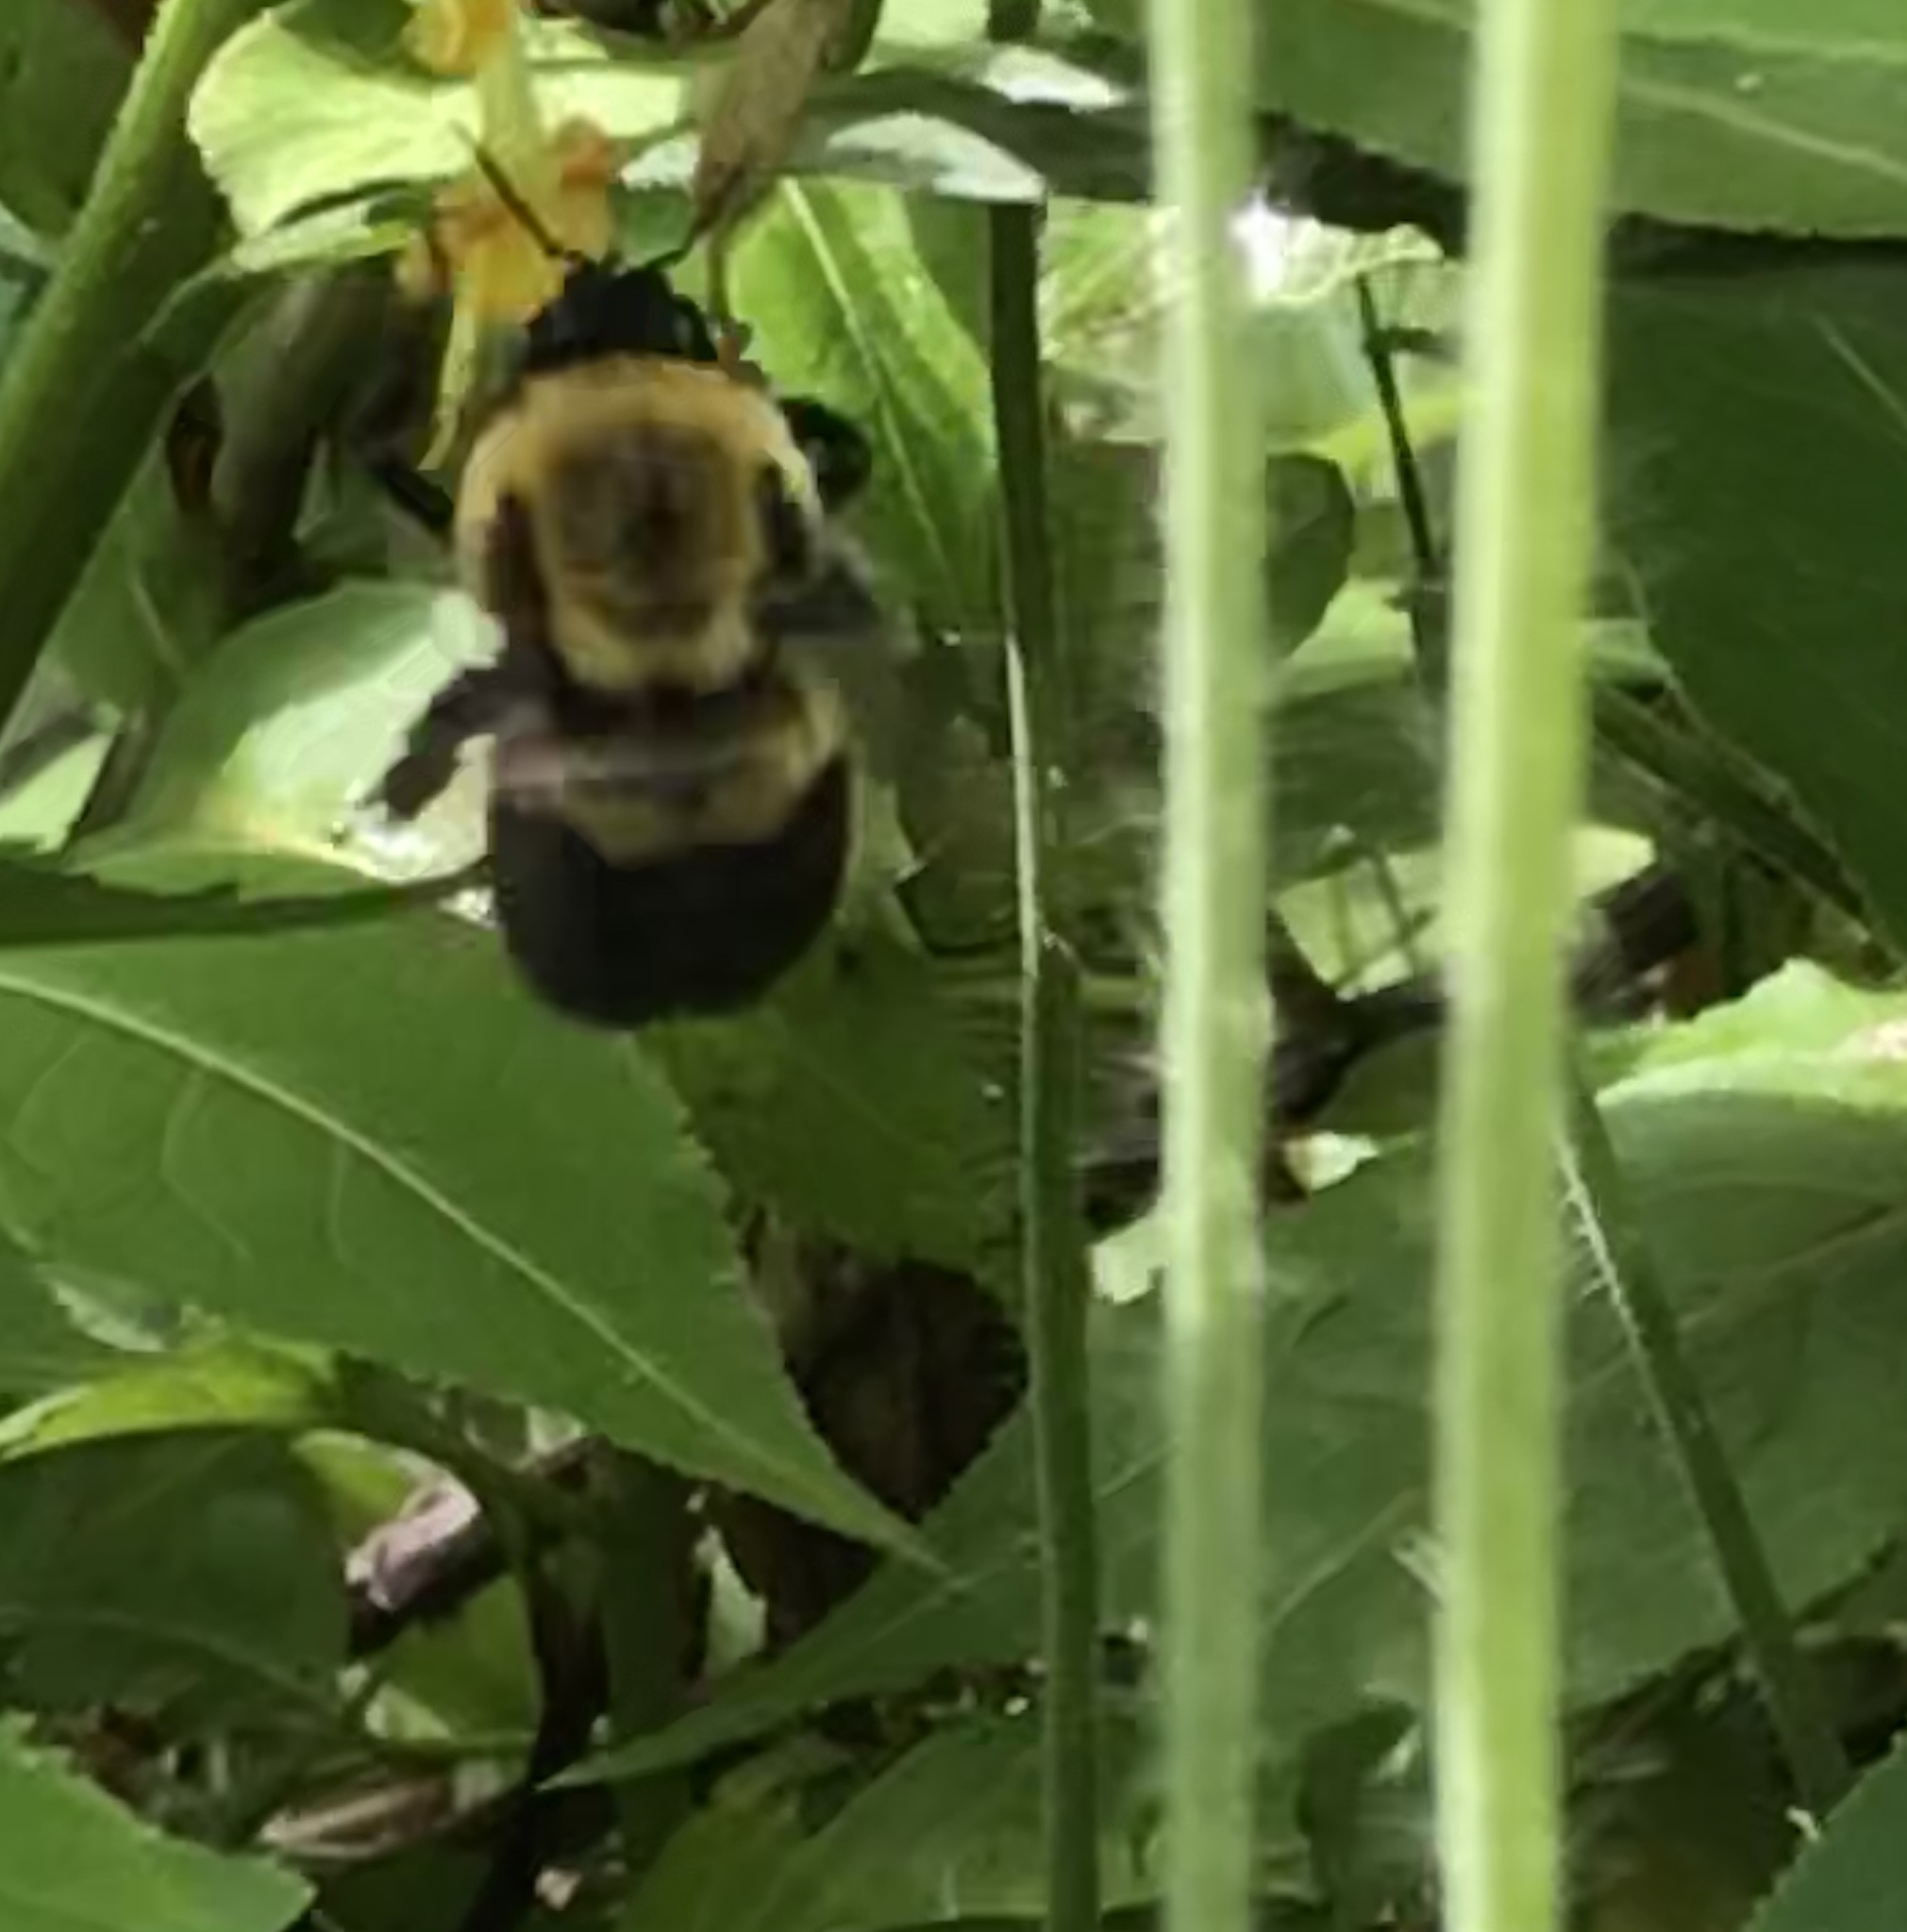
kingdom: Animalia
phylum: Arthropoda
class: Insecta
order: Hymenoptera
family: Apidae
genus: Bombus
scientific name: Bombus griseocollis
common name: Brown-belted bumble bee
